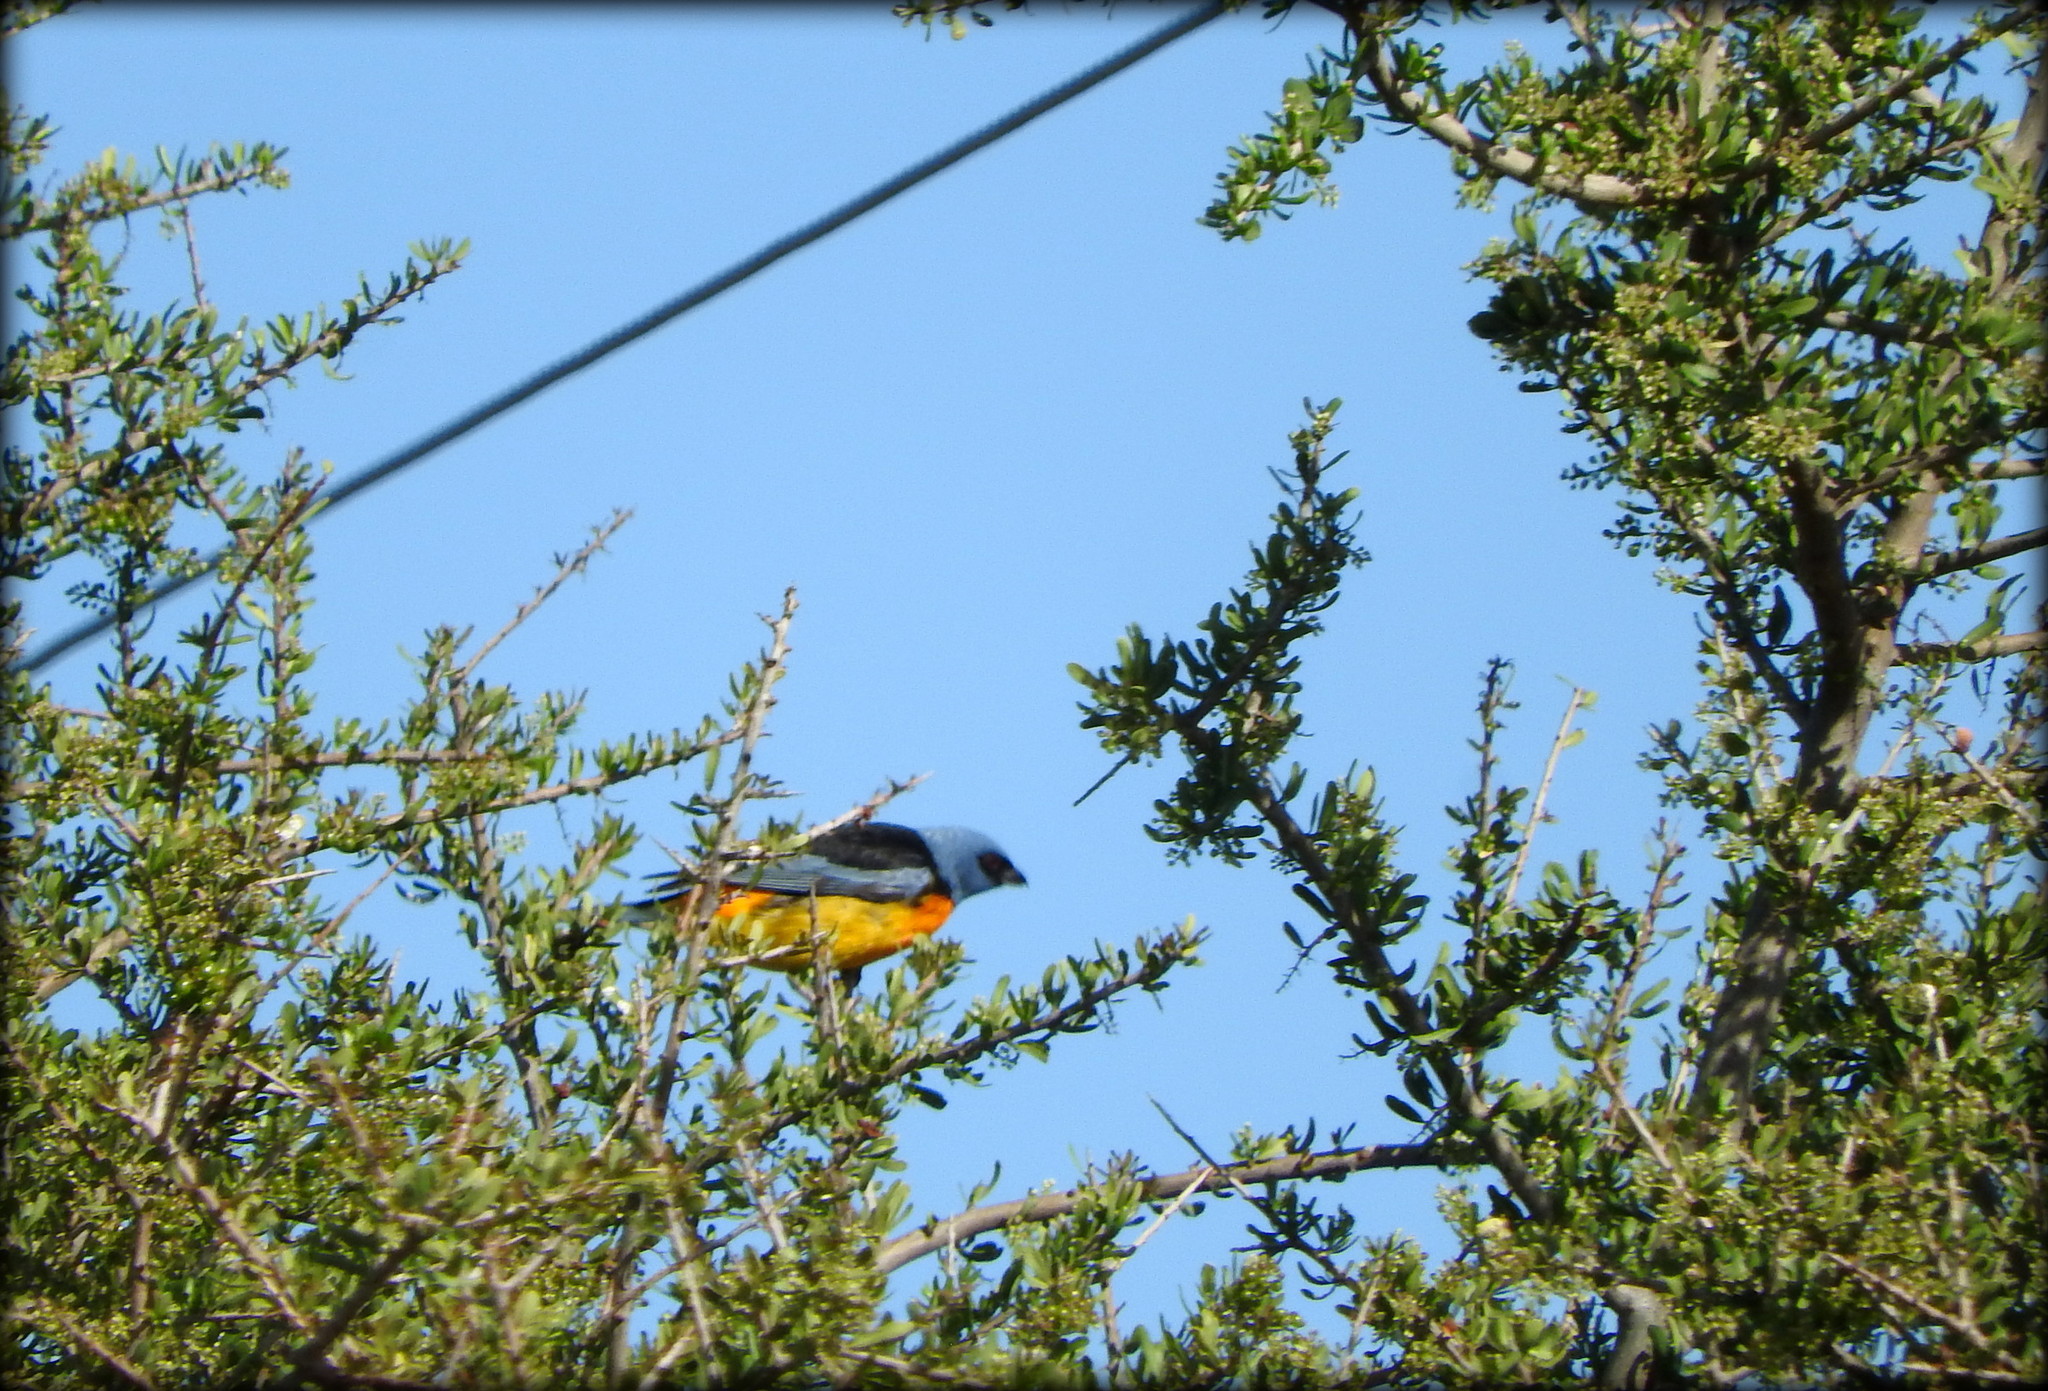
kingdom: Animalia
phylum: Chordata
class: Aves
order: Passeriformes
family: Thraupidae
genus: Rauenia
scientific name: Rauenia bonariensis
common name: Blue-and-yellow tanager
